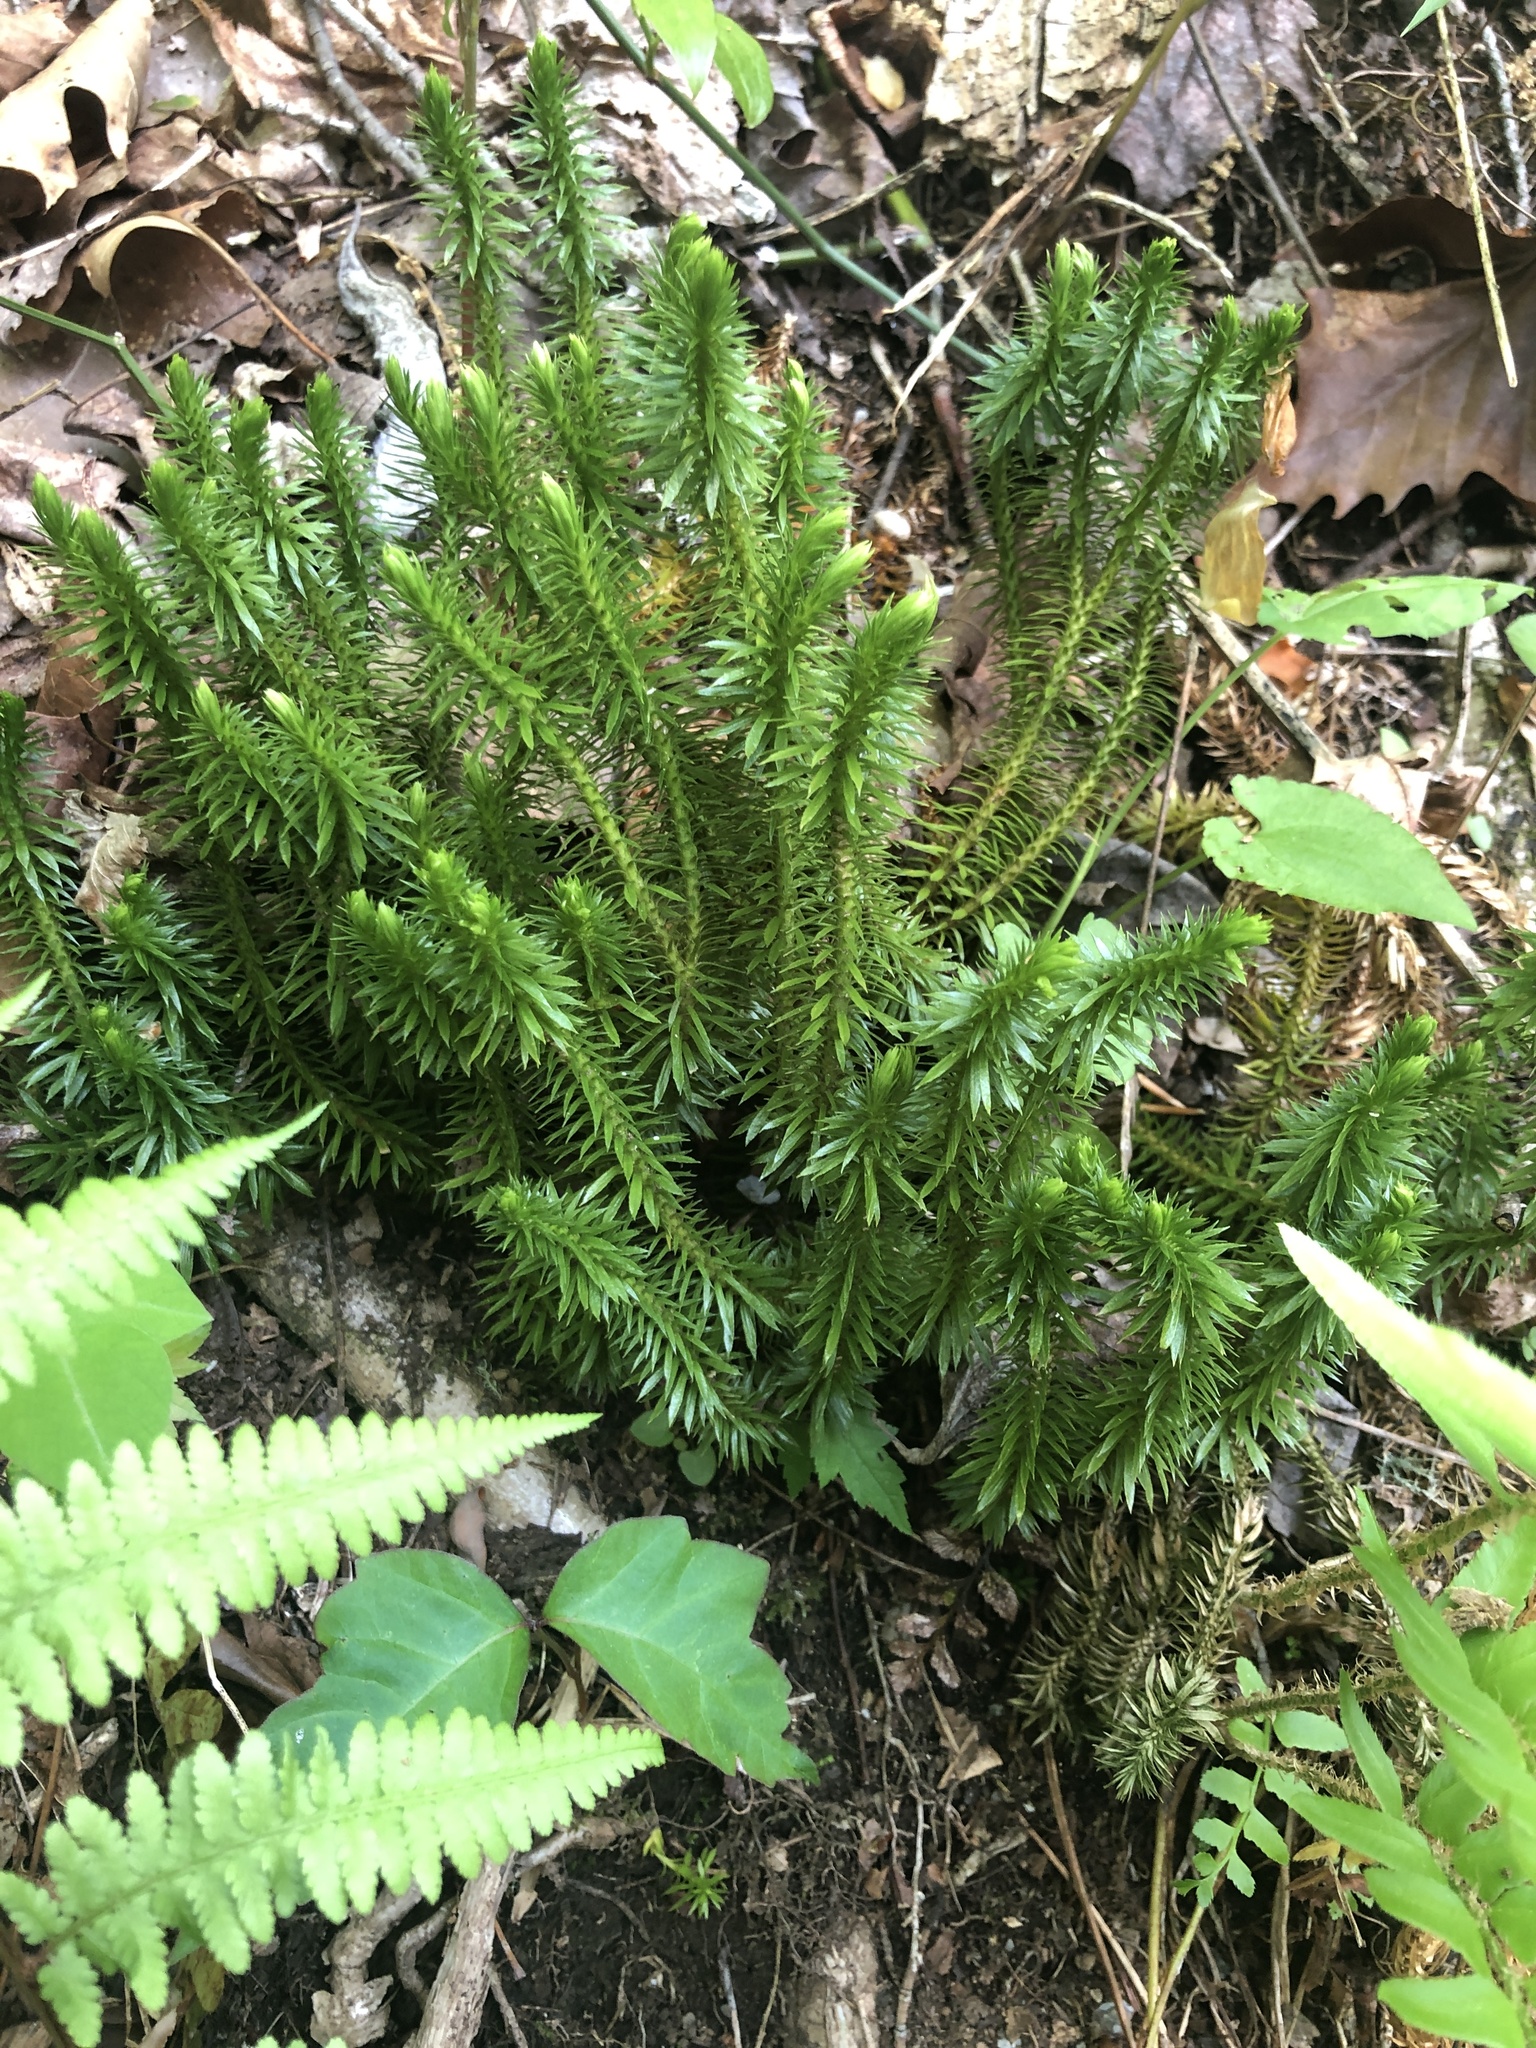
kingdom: Plantae
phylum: Tracheophyta
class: Lycopodiopsida
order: Lycopodiales
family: Lycopodiaceae
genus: Huperzia
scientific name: Huperzia lucidula
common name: Shining clubmoss
